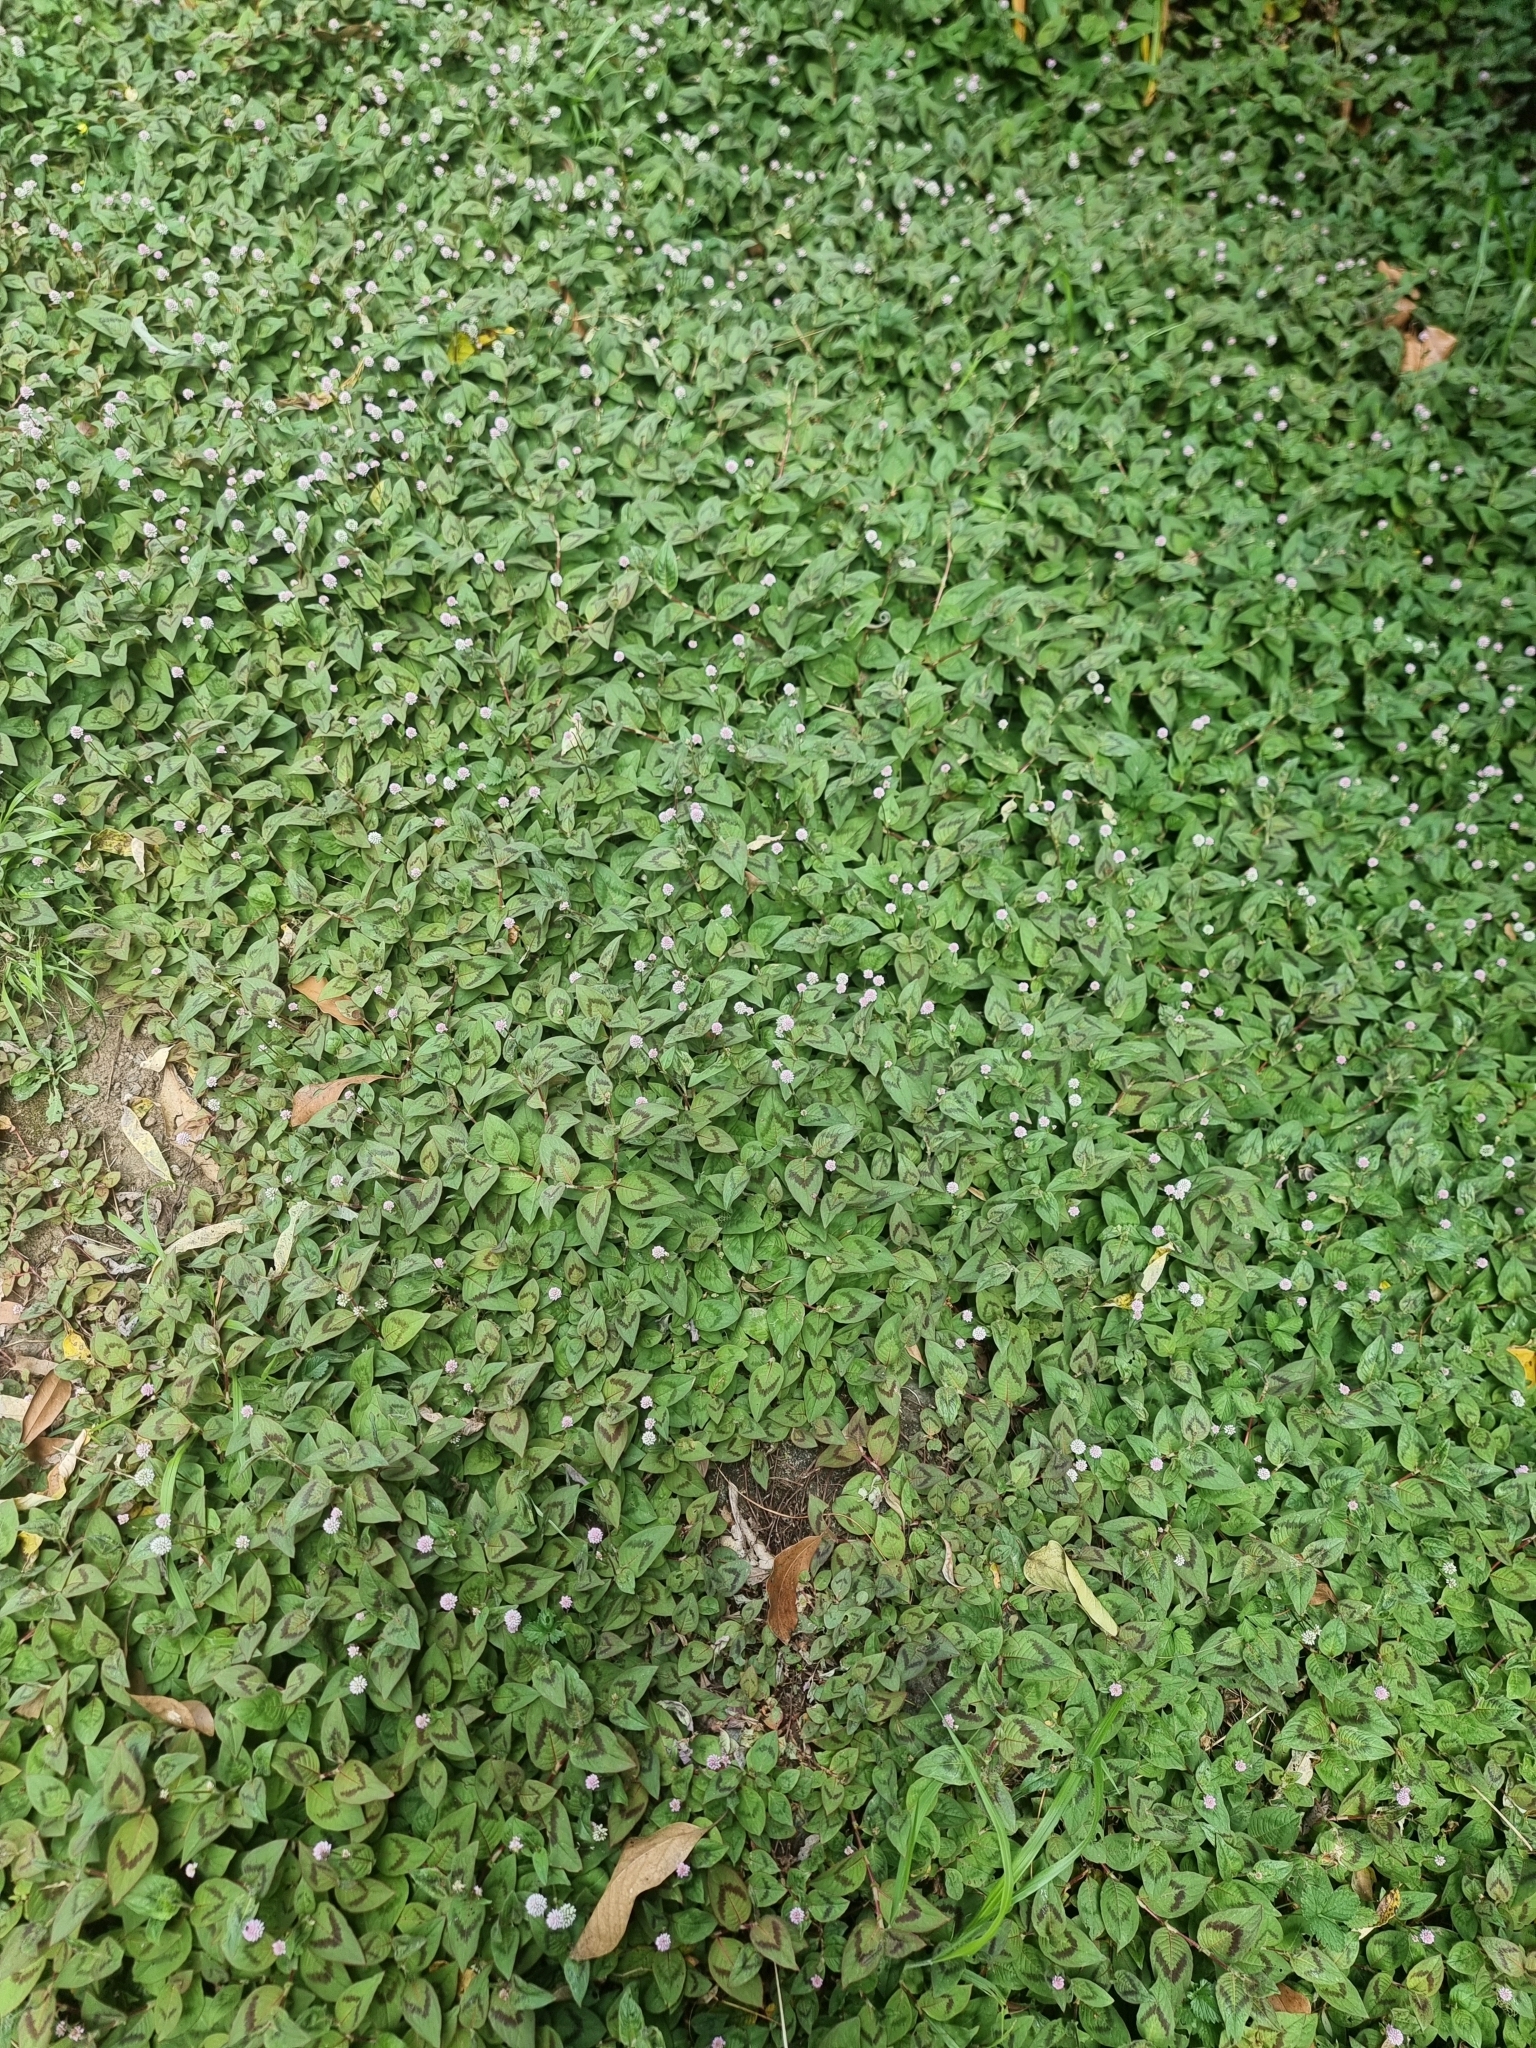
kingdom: Plantae
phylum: Tracheophyta
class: Magnoliopsida
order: Caryophyllales
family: Polygonaceae
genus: Persicaria
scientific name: Persicaria capitata
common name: Pinkhead smartweed
